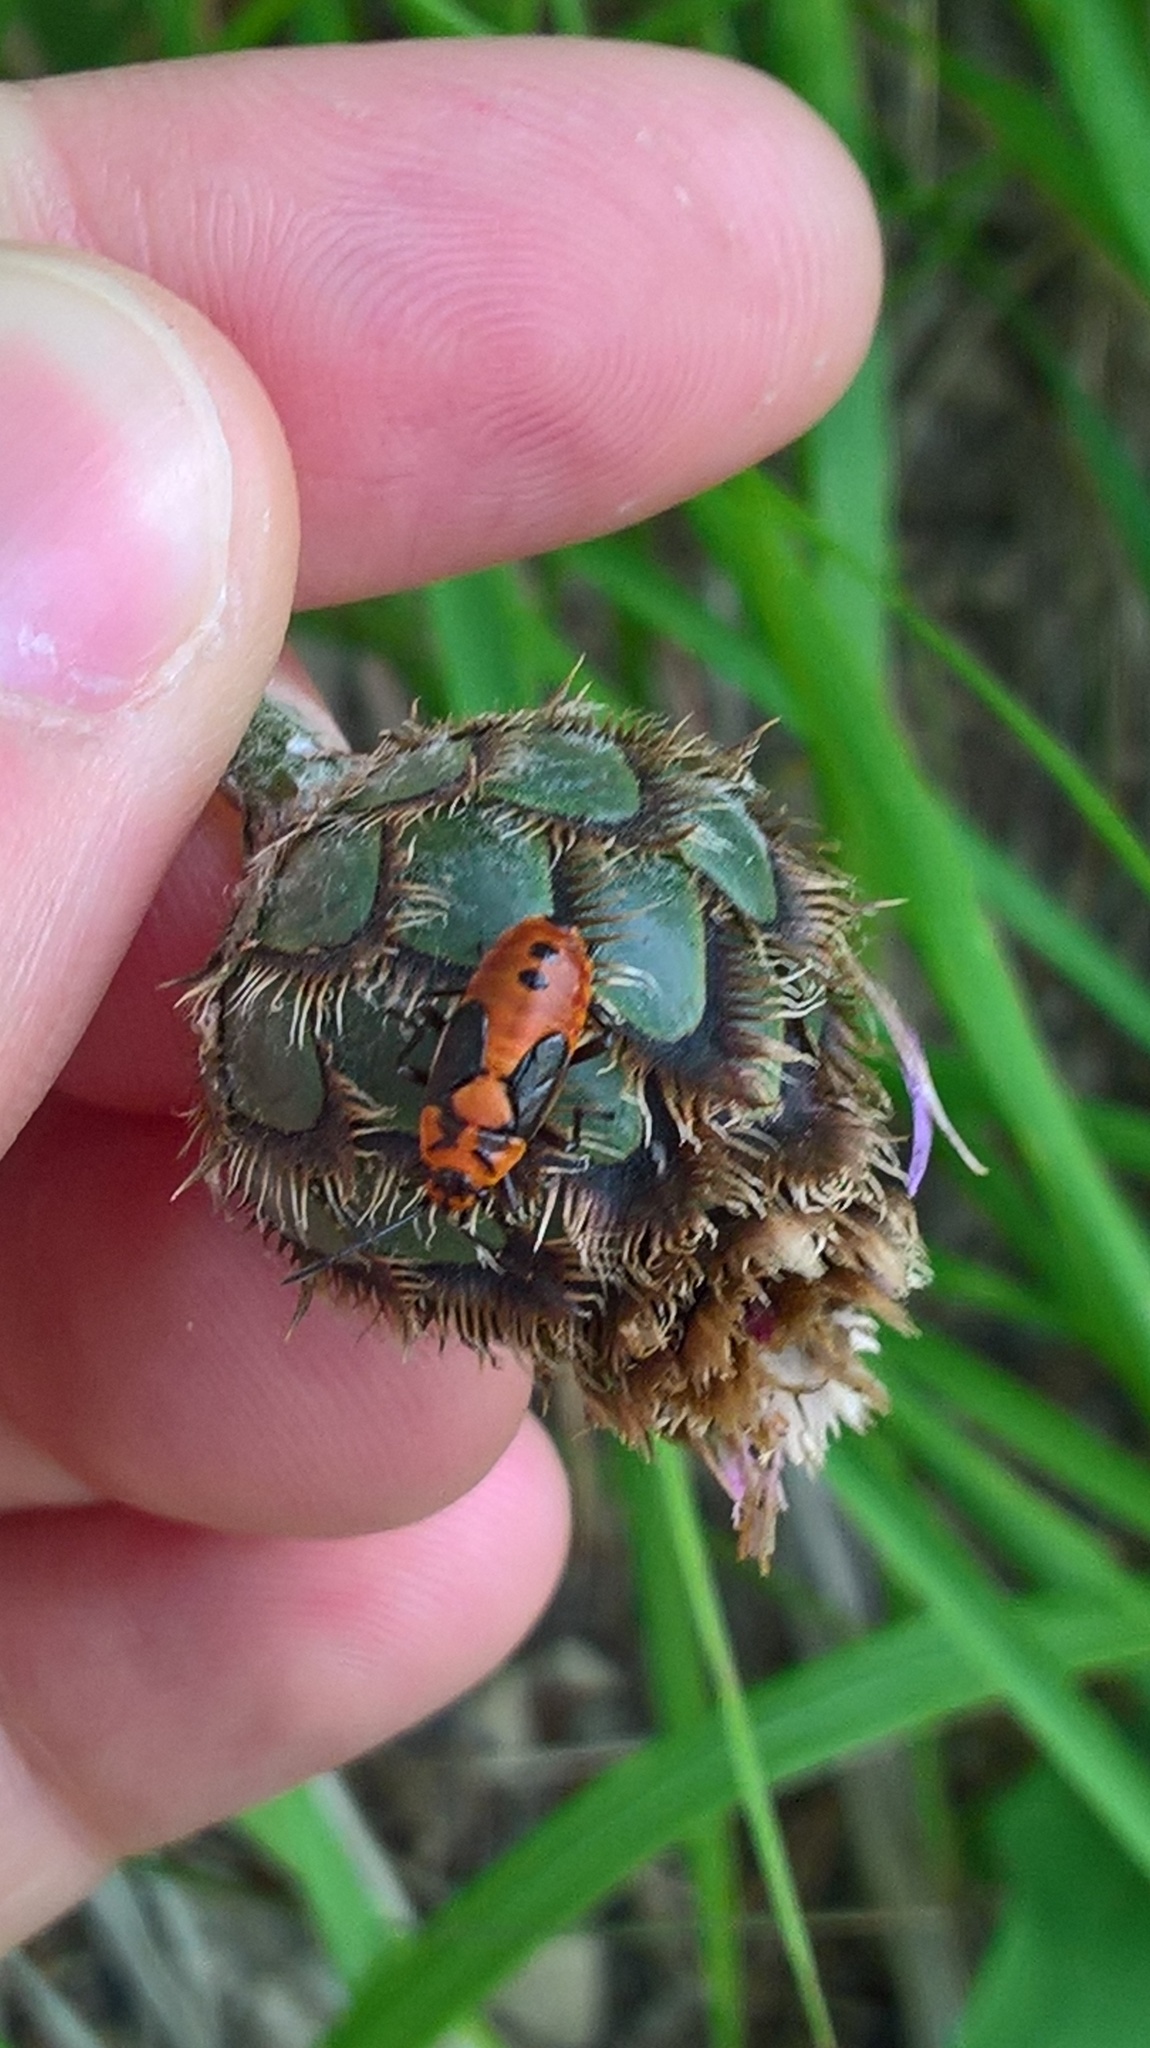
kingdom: Animalia
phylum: Arthropoda
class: Insecta
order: Hemiptera
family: Lygaeidae
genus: Lygaeus
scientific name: Lygaeus equestris
